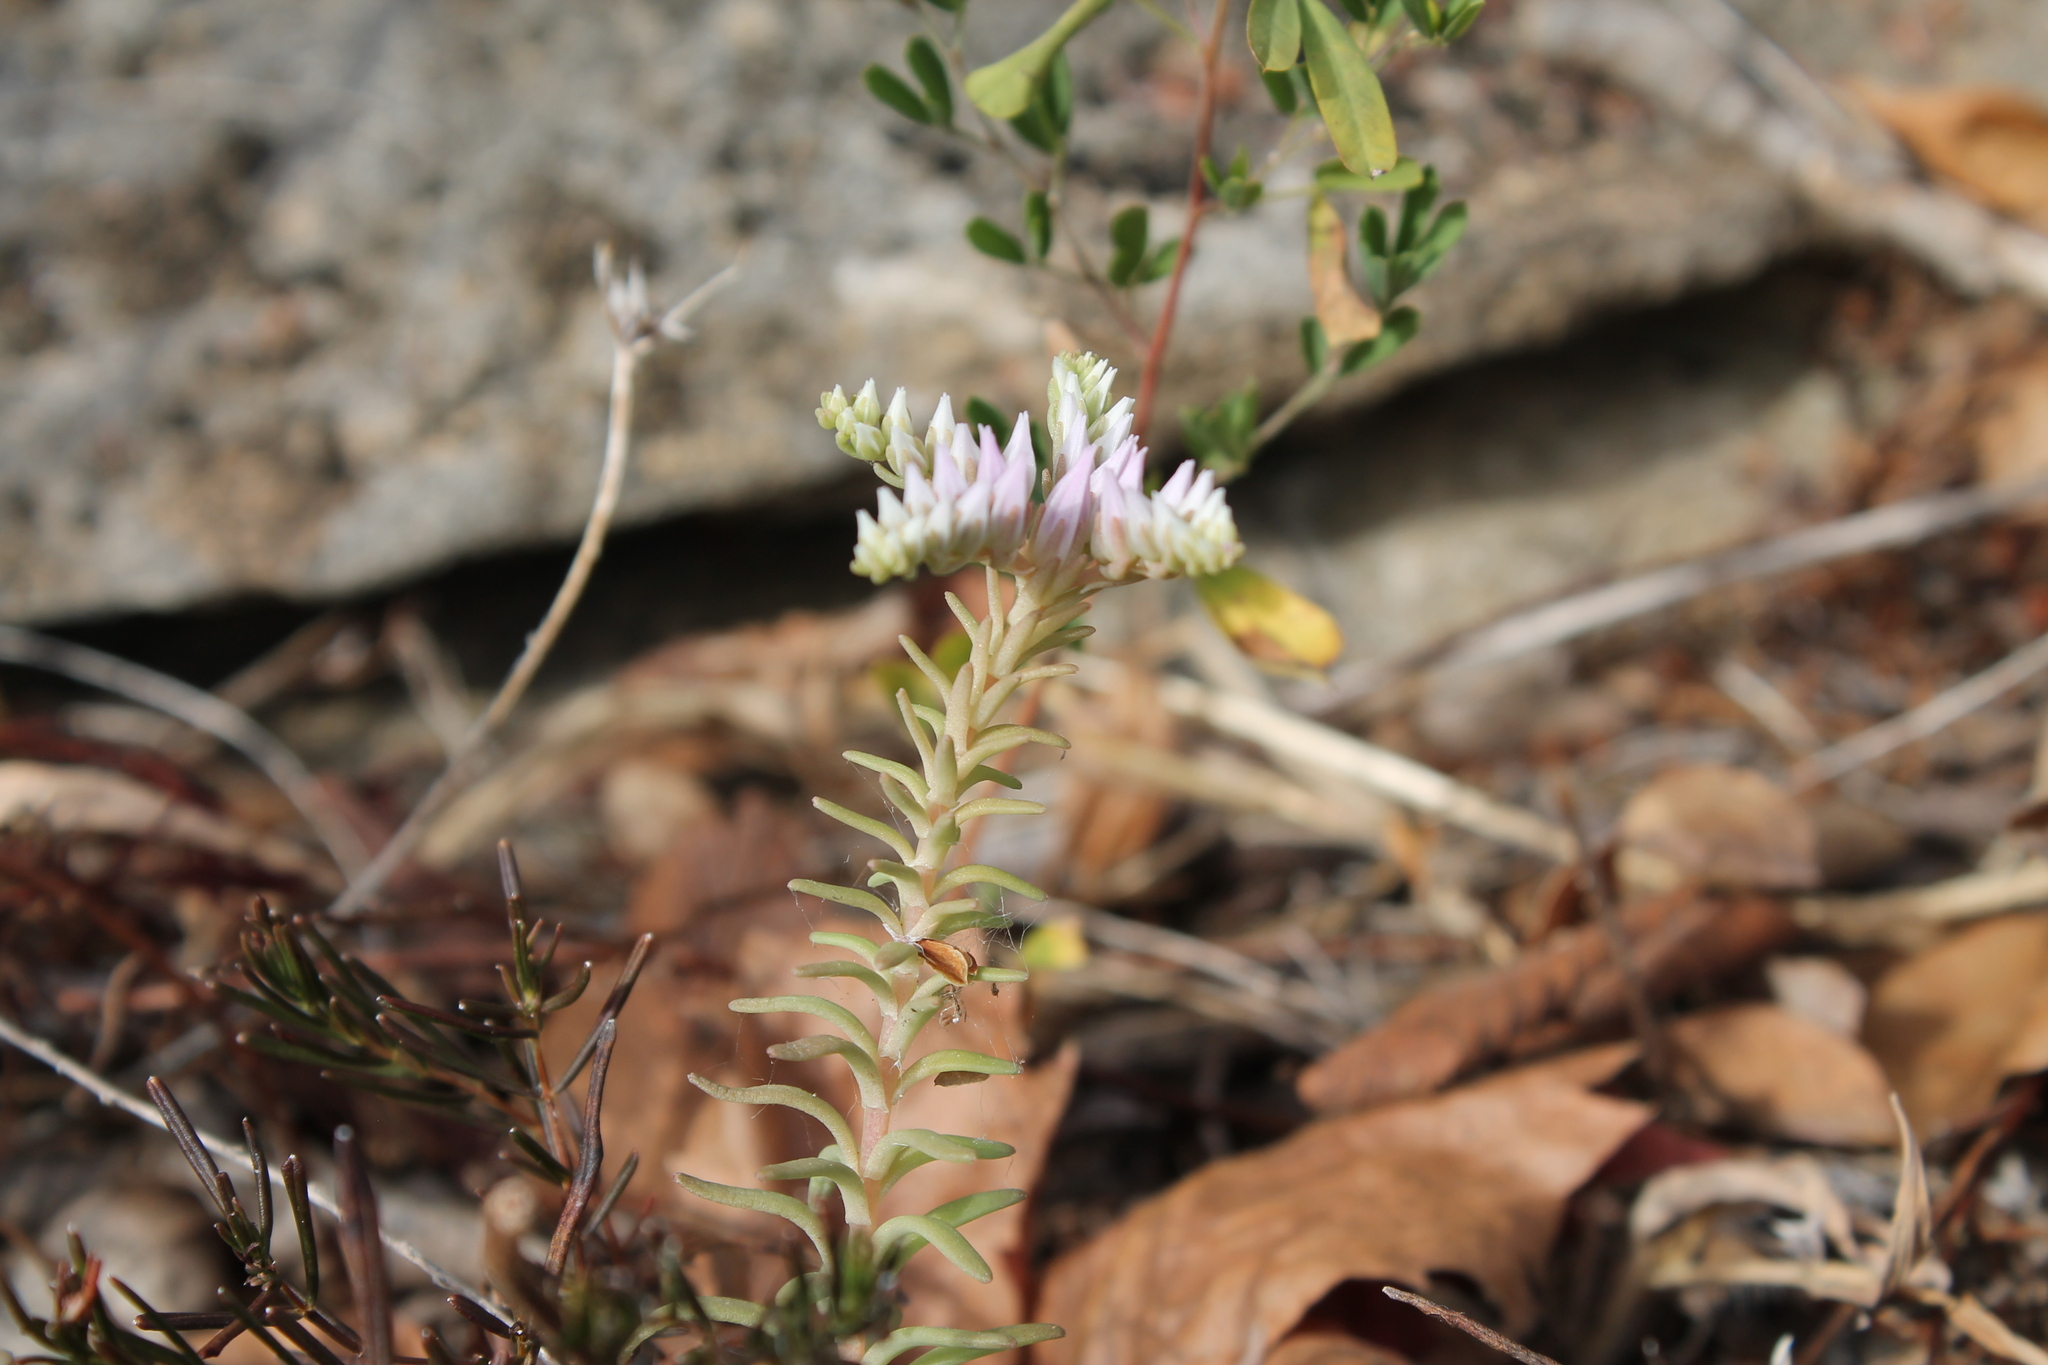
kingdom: Plantae
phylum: Tracheophyta
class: Magnoliopsida
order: Saxifragales
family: Crassulaceae
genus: Sedum
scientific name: Sedum pulchellum
